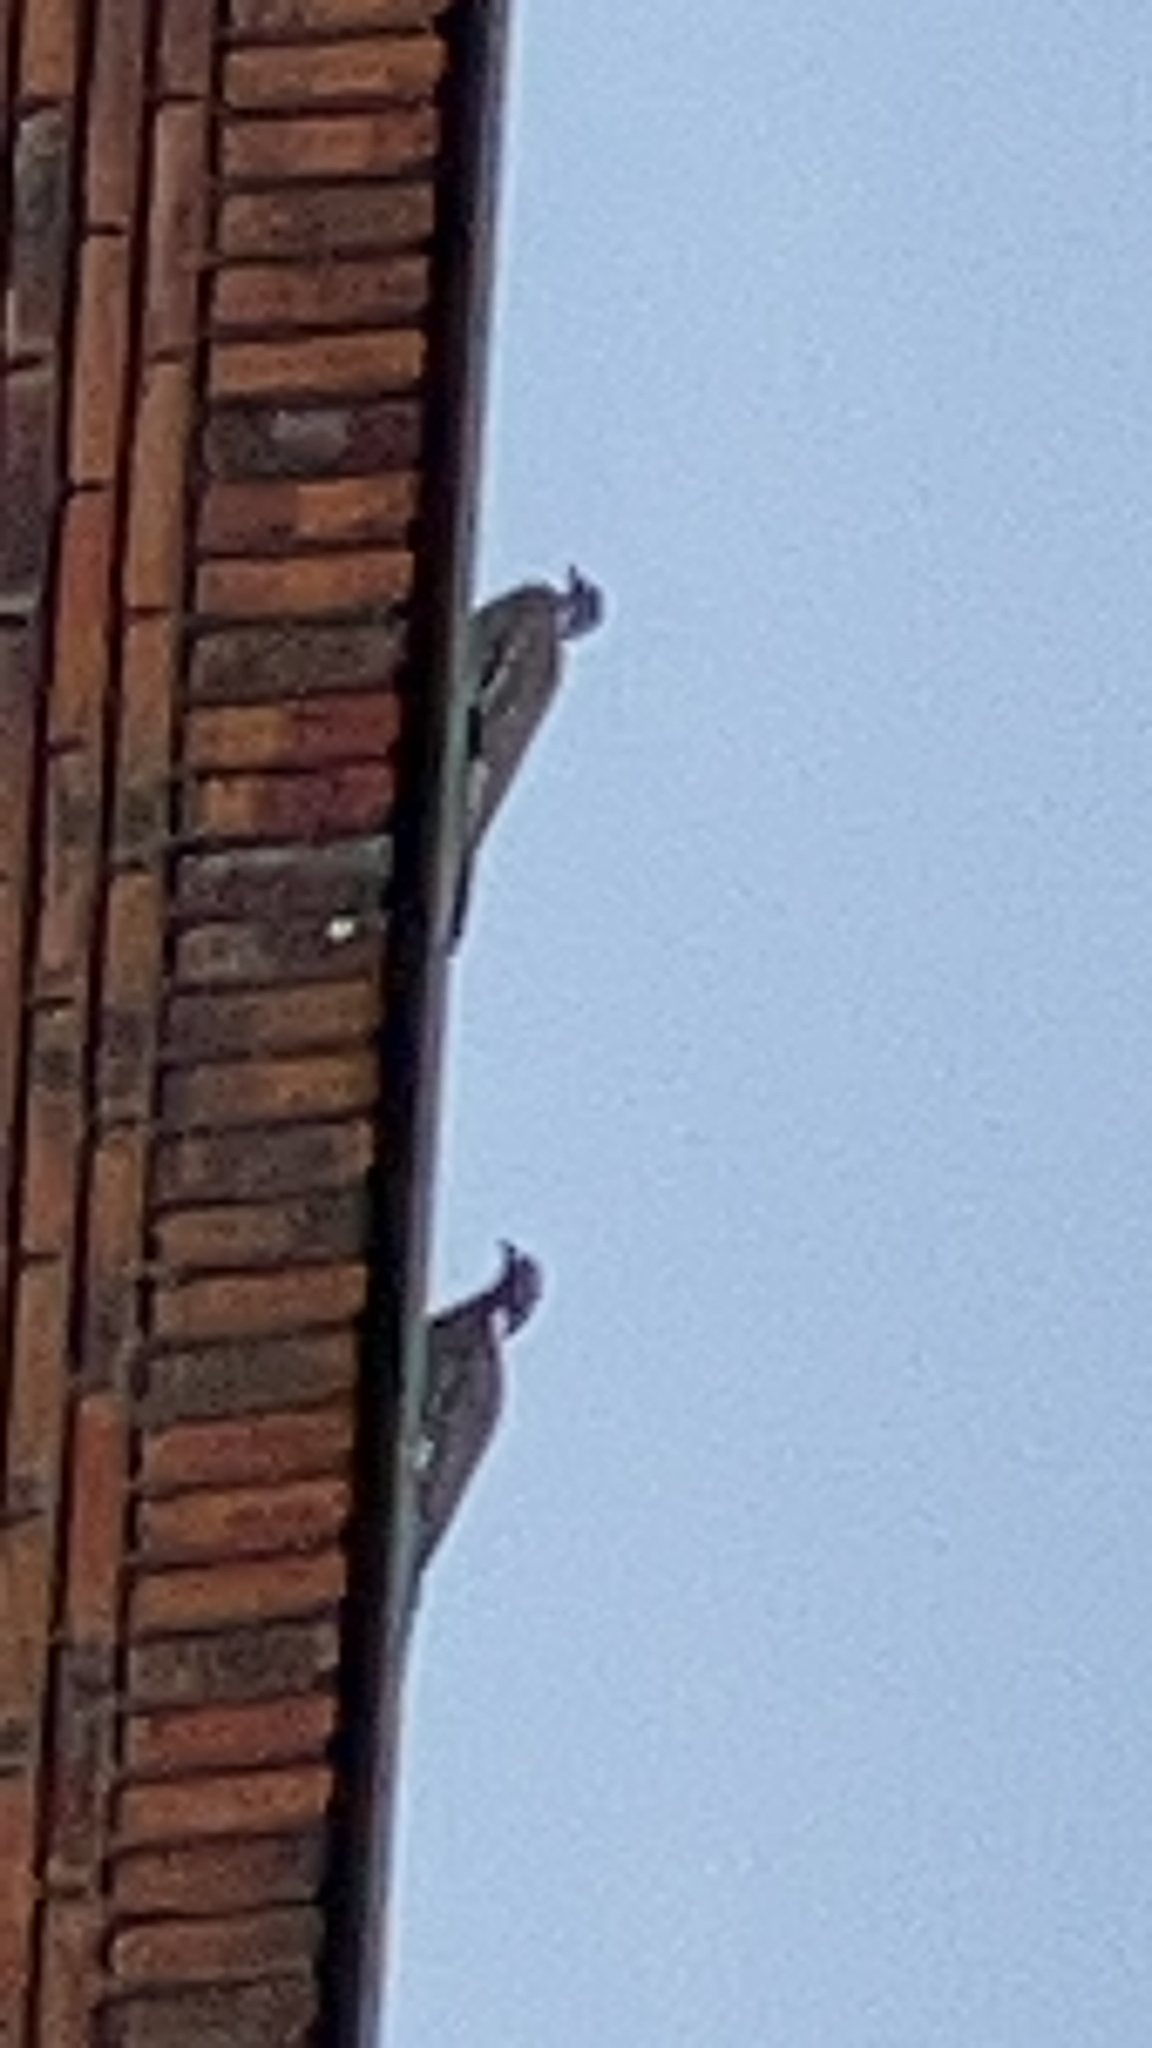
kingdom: Animalia
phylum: Chordata
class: Aves
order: Columbiformes
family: Columbidae
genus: Columba
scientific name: Columba palumbus
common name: Common wood pigeon
